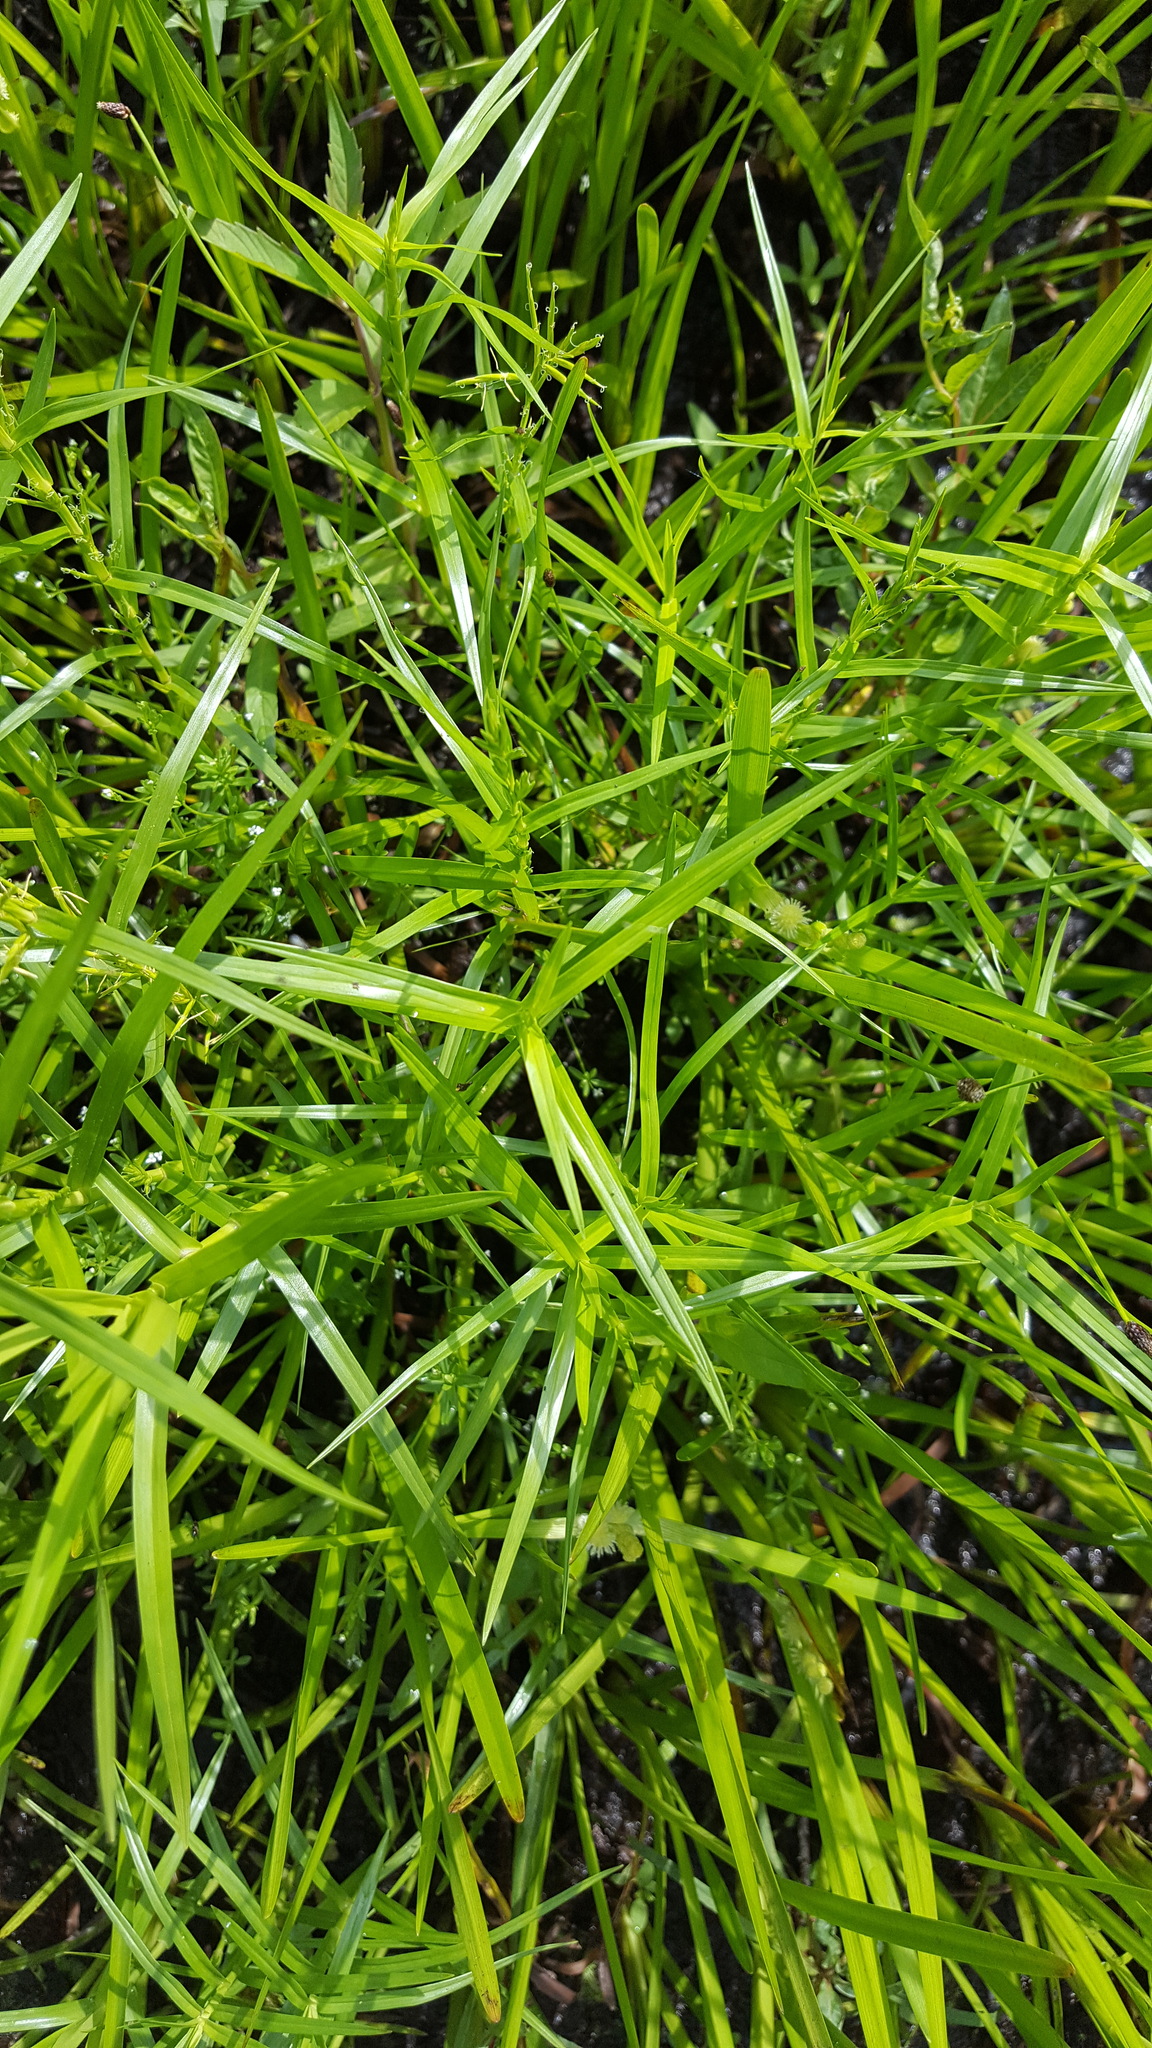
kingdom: Plantae
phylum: Tracheophyta
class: Liliopsida
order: Poales
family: Cyperaceae
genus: Dulichium
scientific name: Dulichium arundinaceum
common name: Three-way sedge
